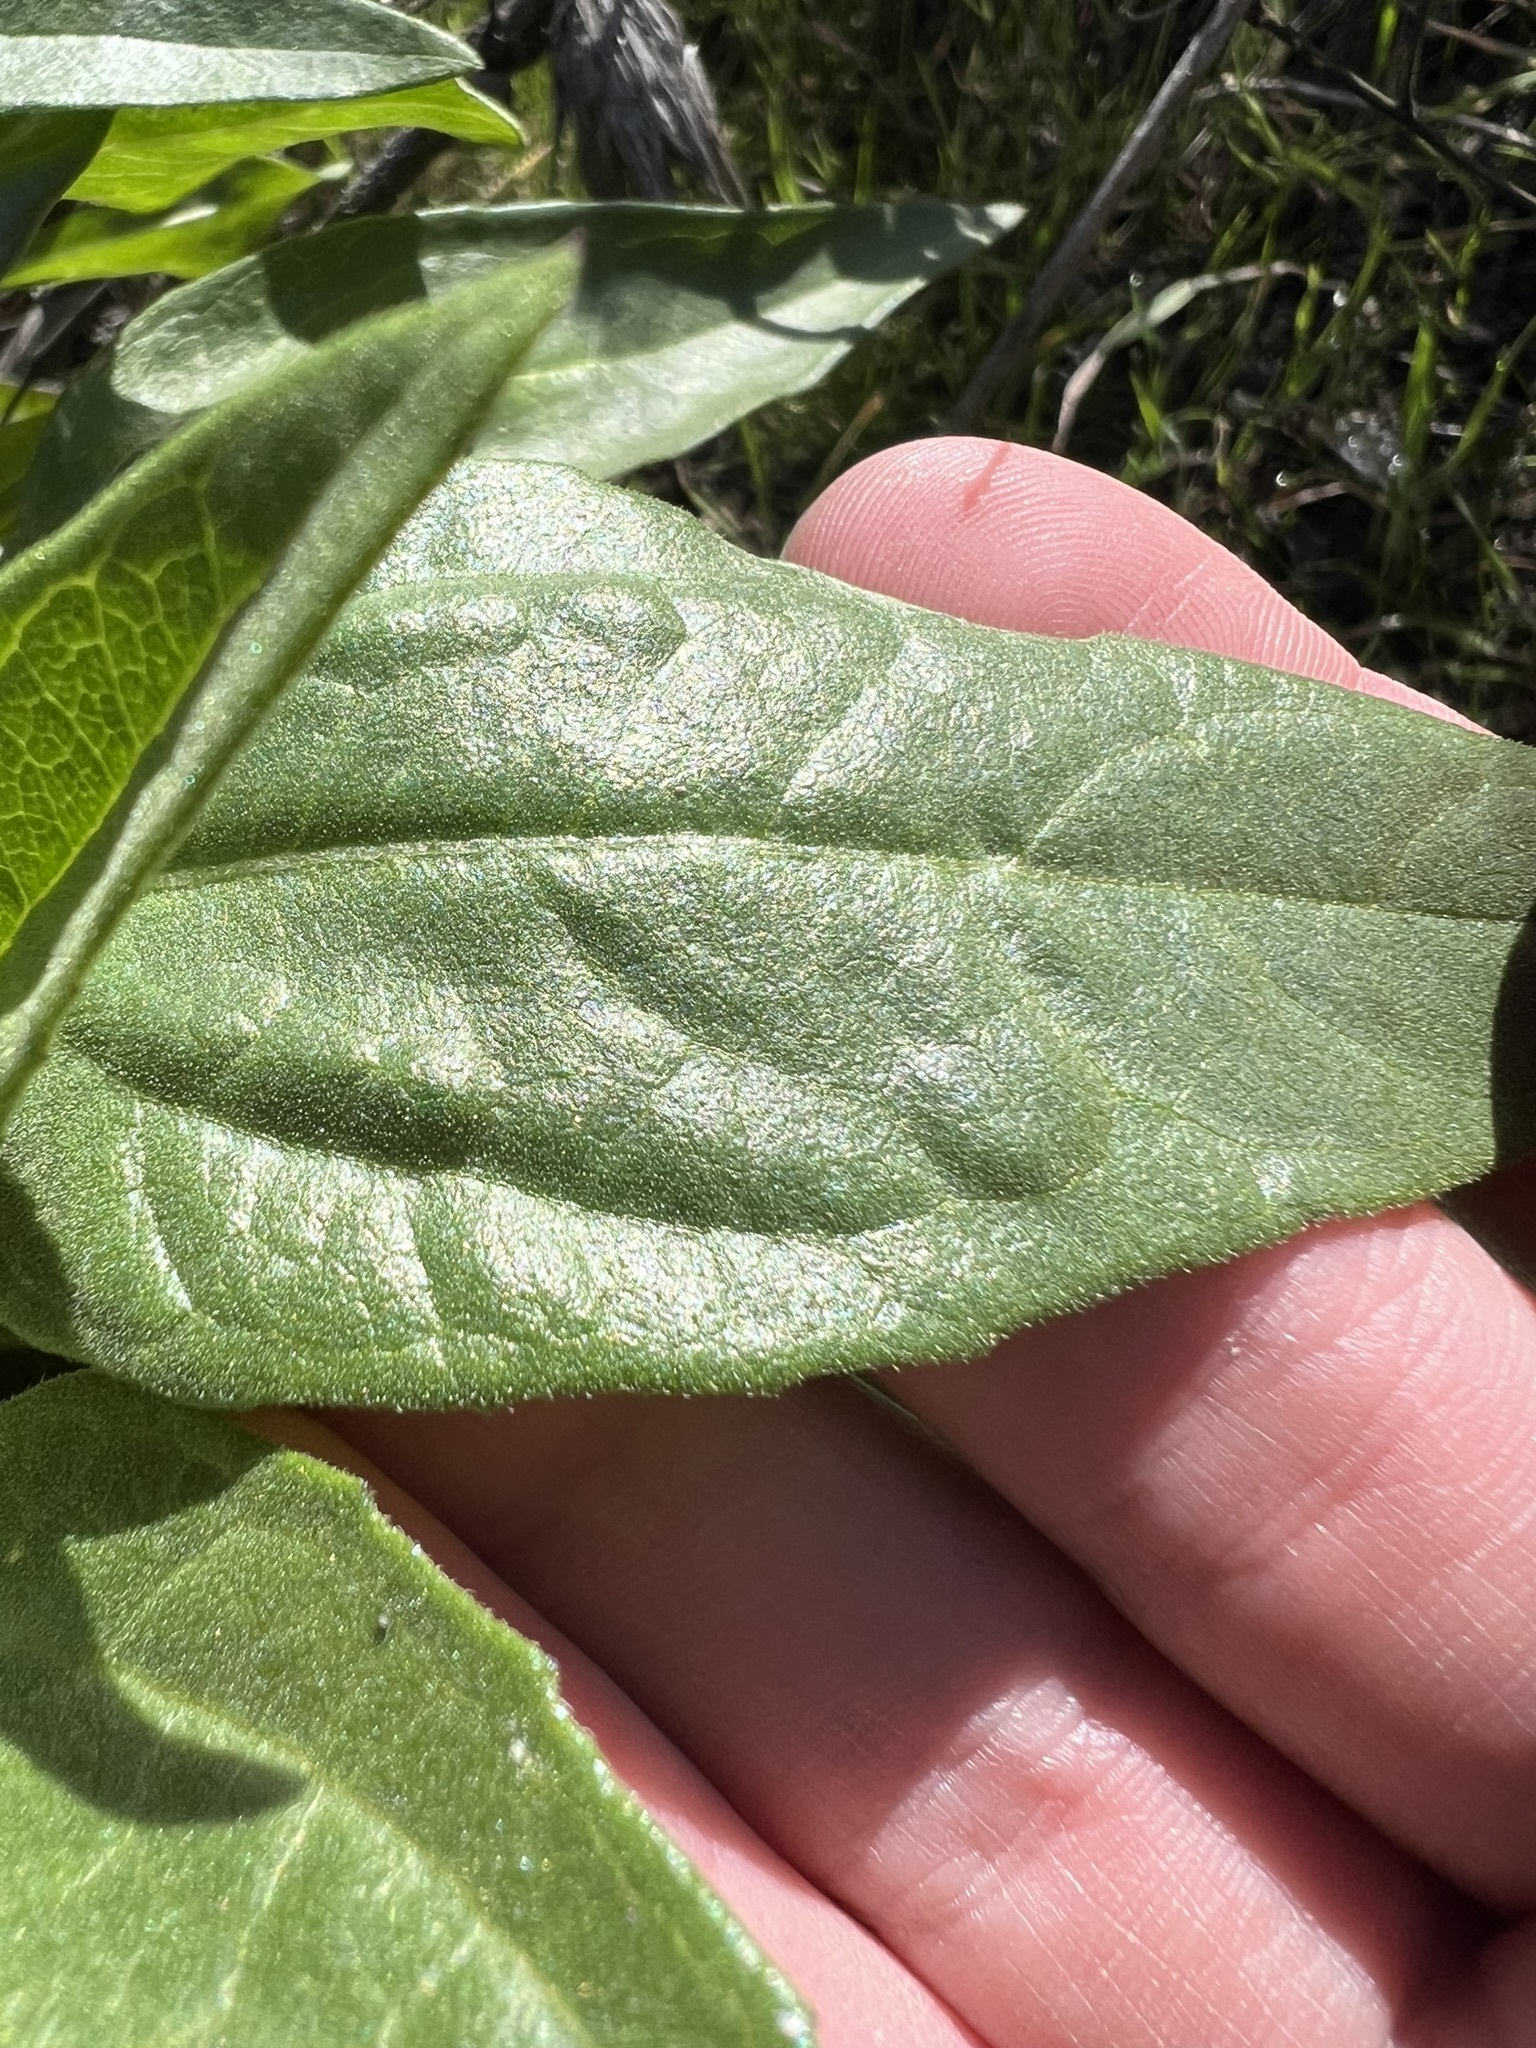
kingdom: Plantae
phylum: Tracheophyta
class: Magnoliopsida
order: Asterales
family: Asteraceae
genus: Helianthus
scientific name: Helianthus gracilentus
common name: Slender sunflower
